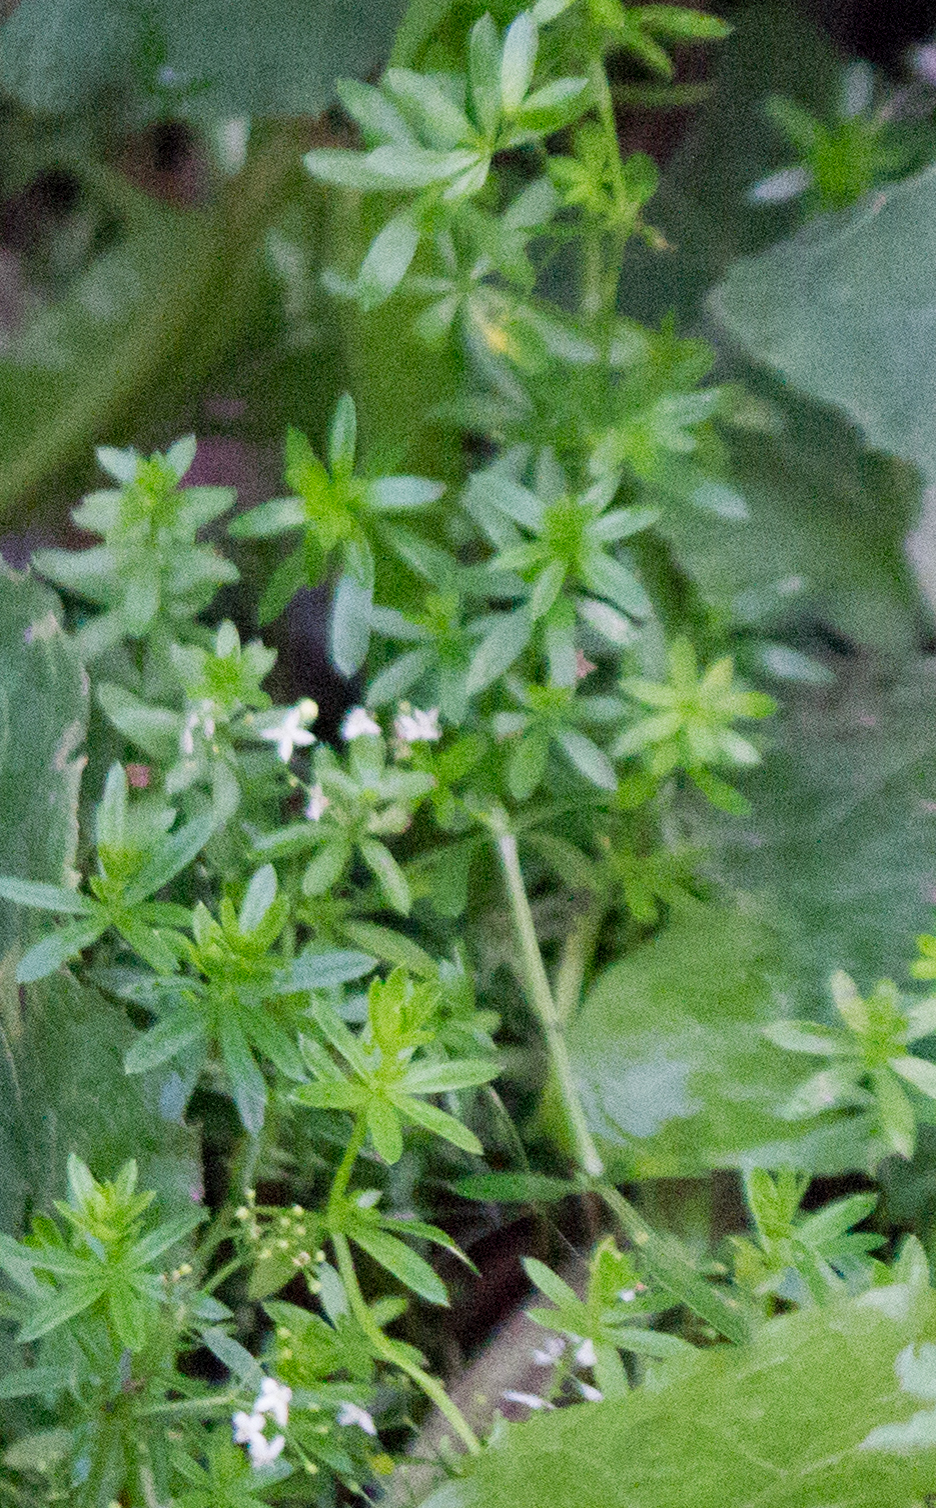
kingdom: Plantae
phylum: Tracheophyta
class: Magnoliopsida
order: Gentianales
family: Rubiaceae
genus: Galium
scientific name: Galium mollugo
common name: Hedge bedstraw
